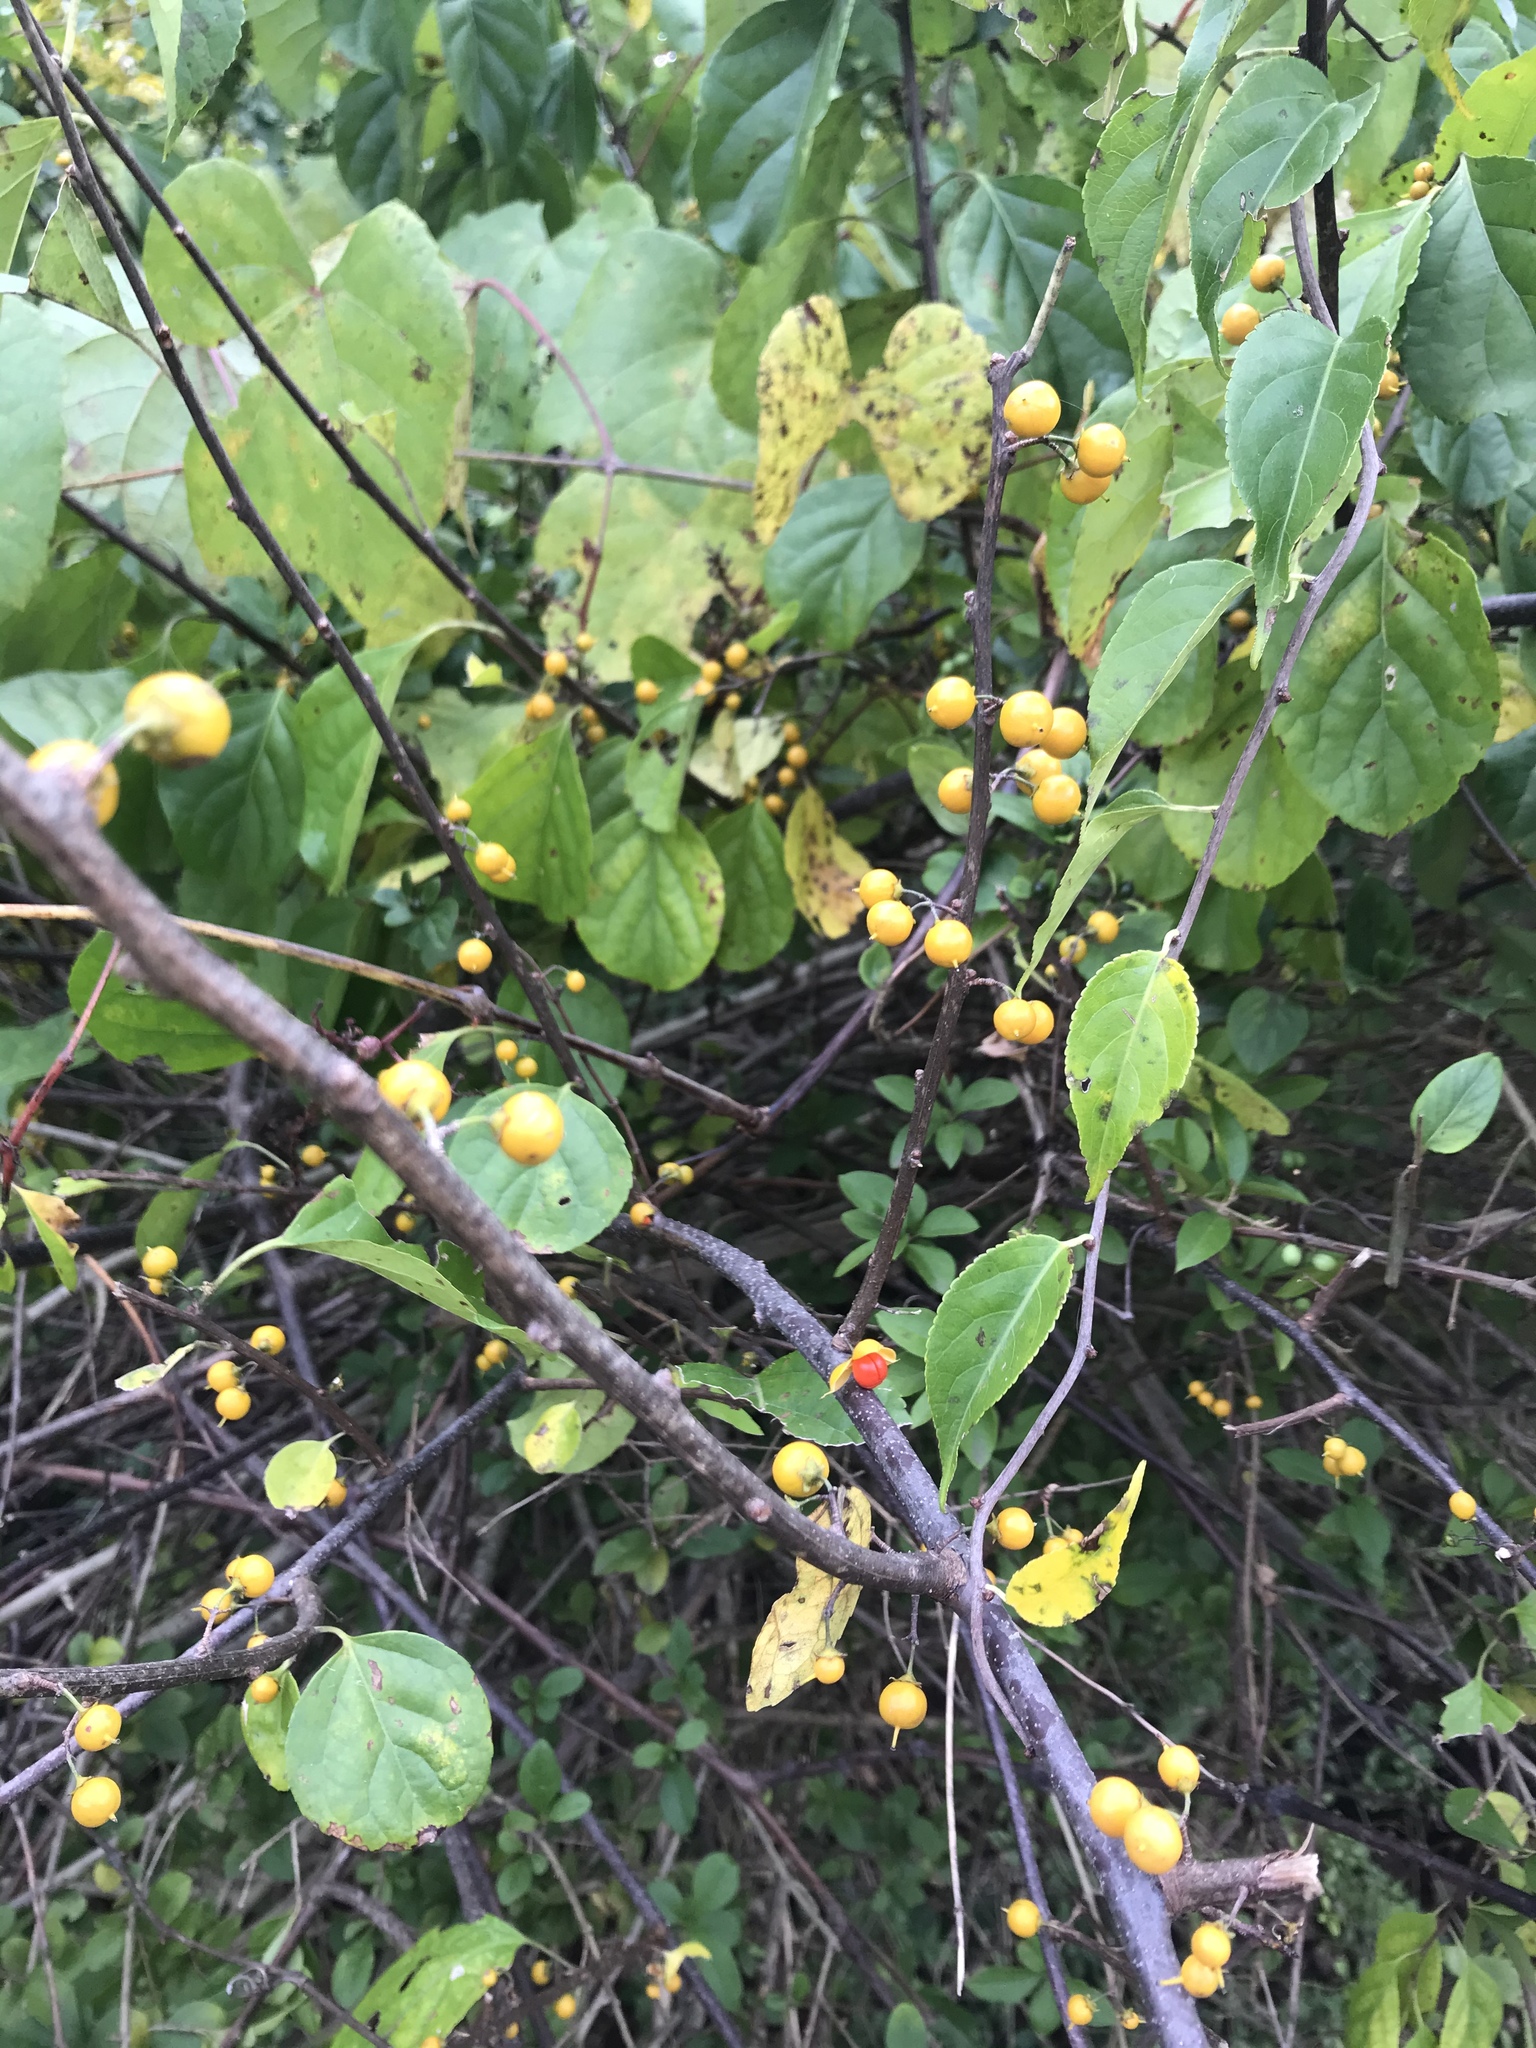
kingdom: Plantae
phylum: Tracheophyta
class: Magnoliopsida
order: Celastrales
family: Celastraceae
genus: Celastrus
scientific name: Celastrus orbiculatus
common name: Oriental bittersweet
